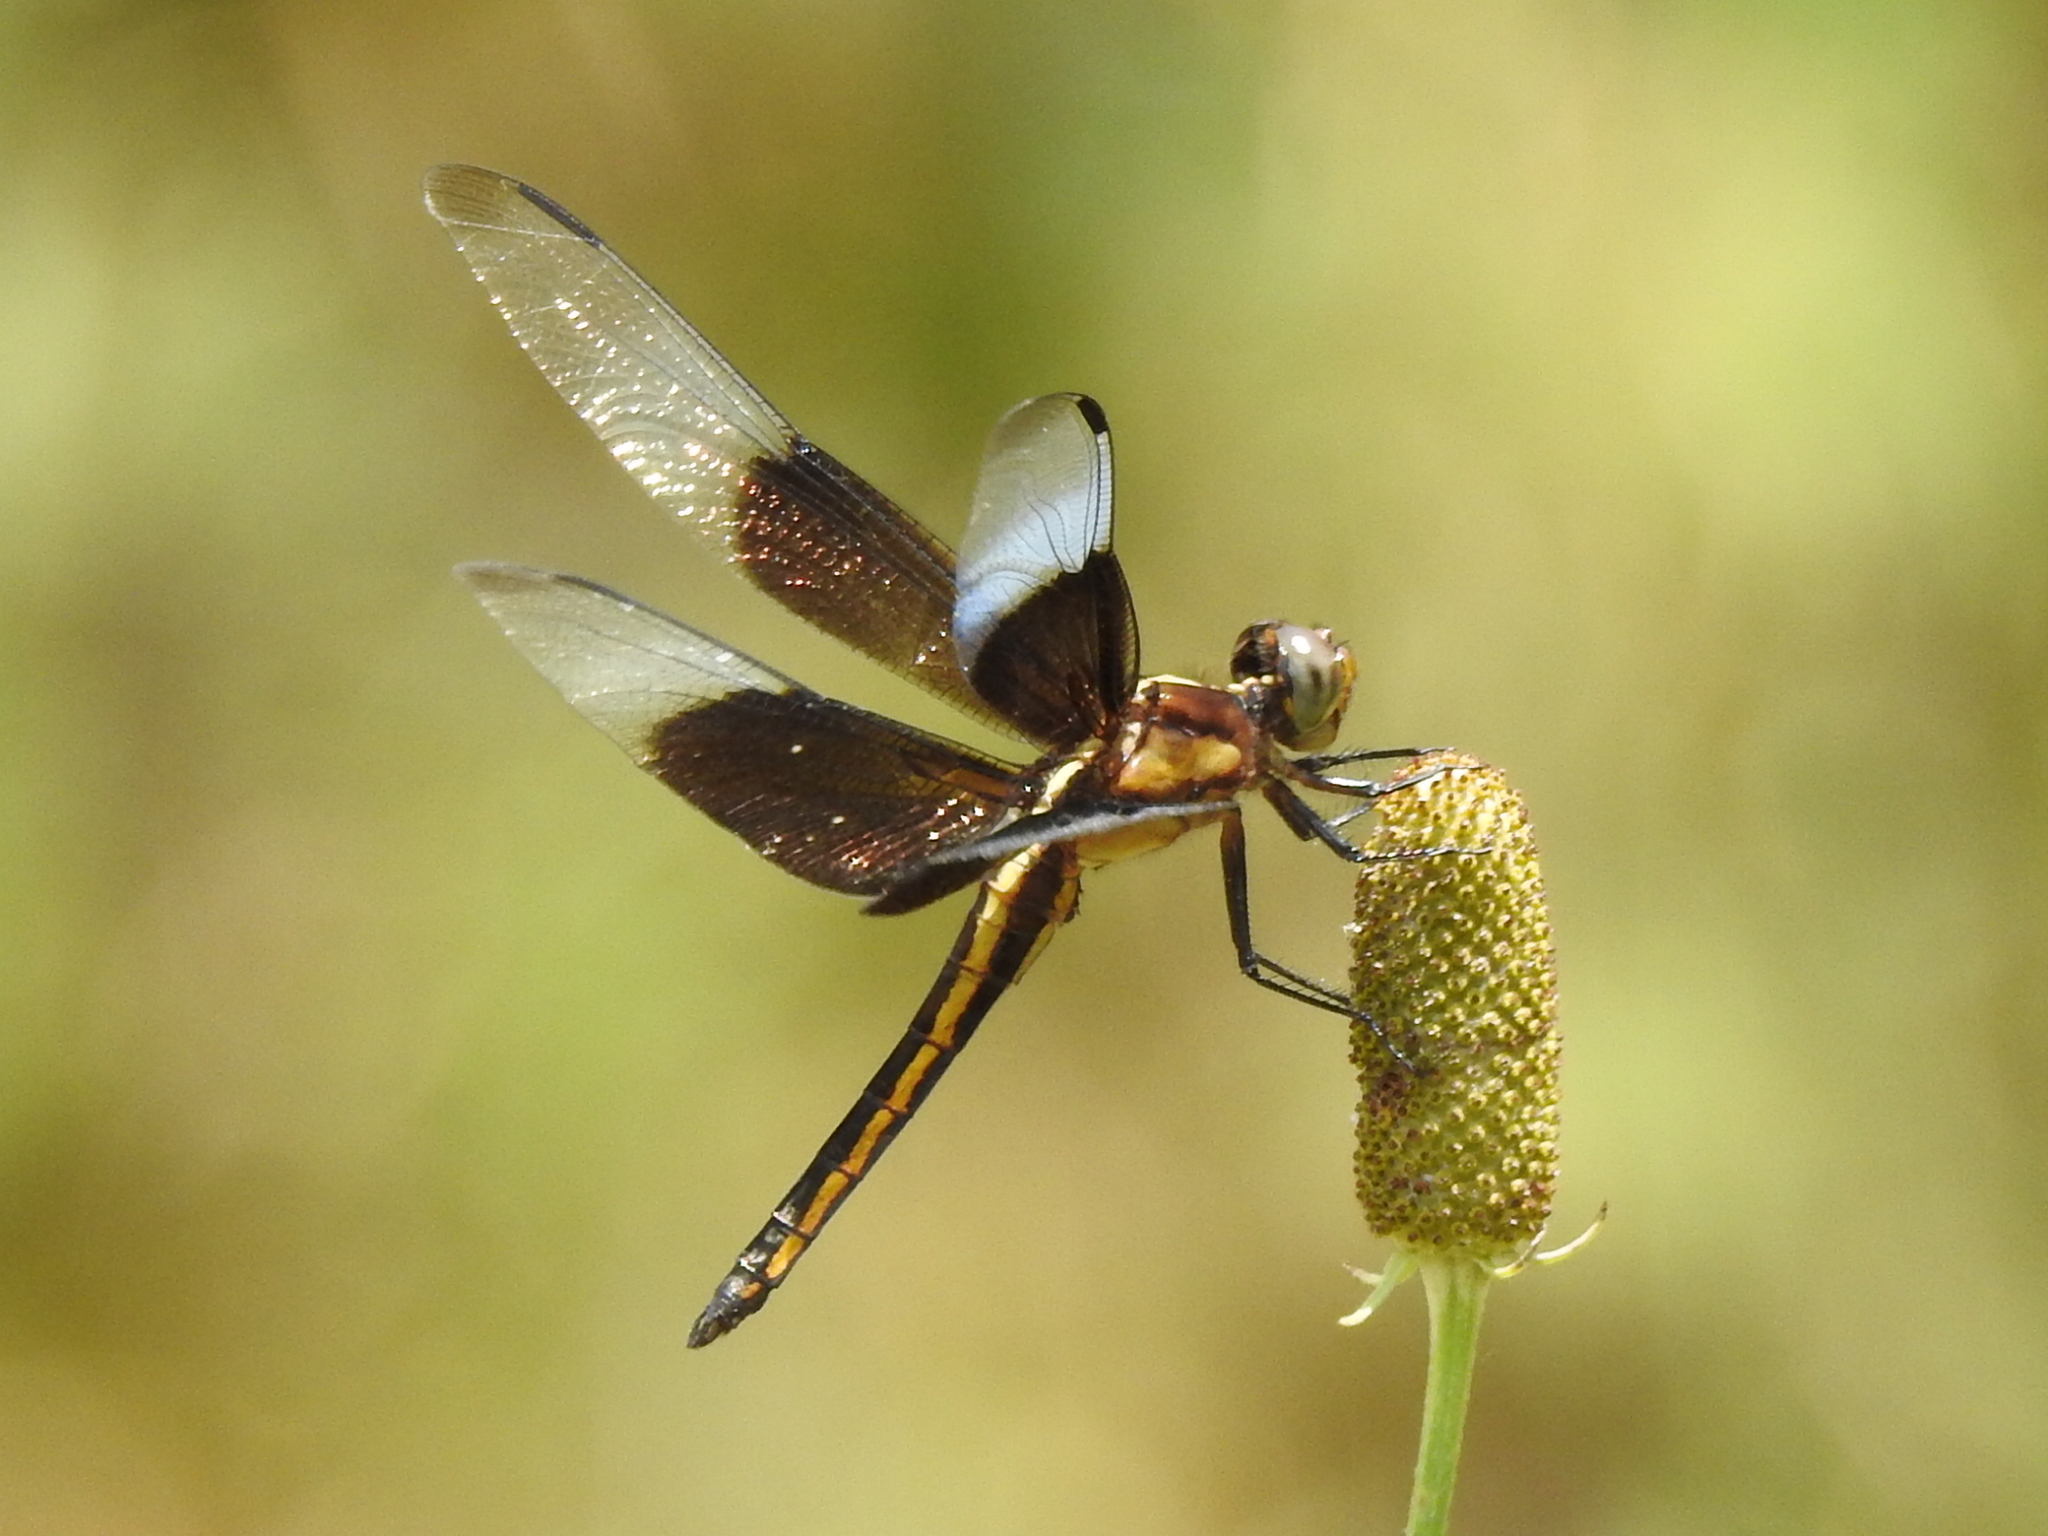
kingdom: Animalia
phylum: Arthropoda
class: Insecta
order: Odonata
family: Libellulidae
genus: Libellula
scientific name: Libellula luctuosa
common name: Widow skimmer
